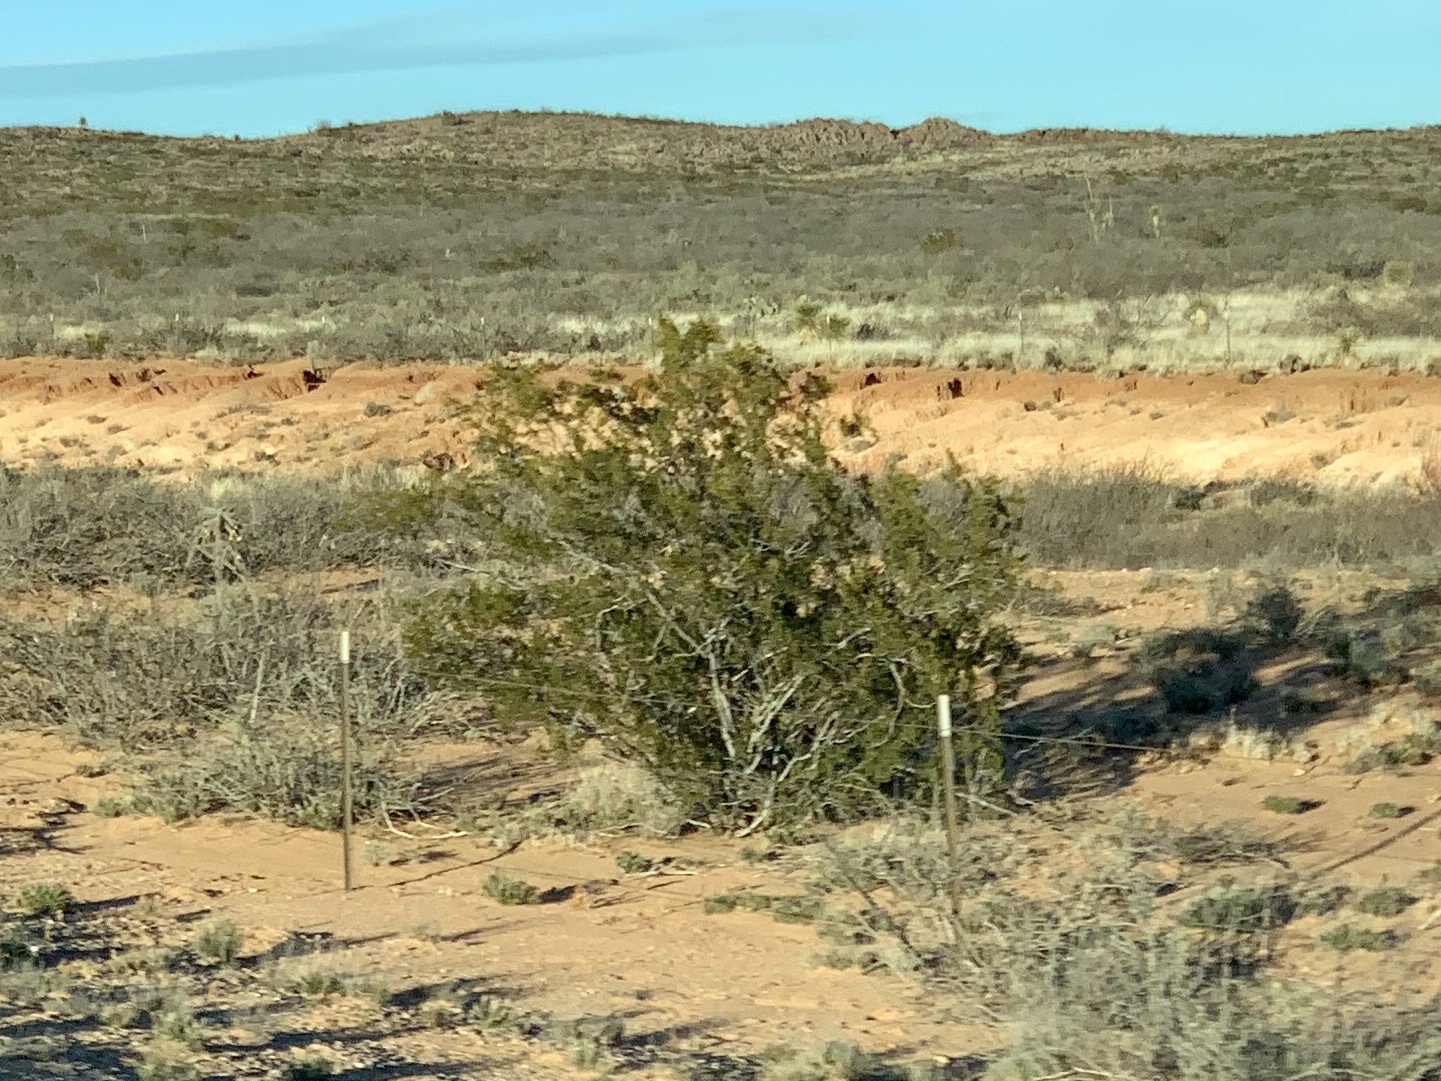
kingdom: Plantae
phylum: Tracheophyta
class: Magnoliopsida
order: Zygophyllales
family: Zygophyllaceae
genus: Larrea
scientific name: Larrea tridentata
